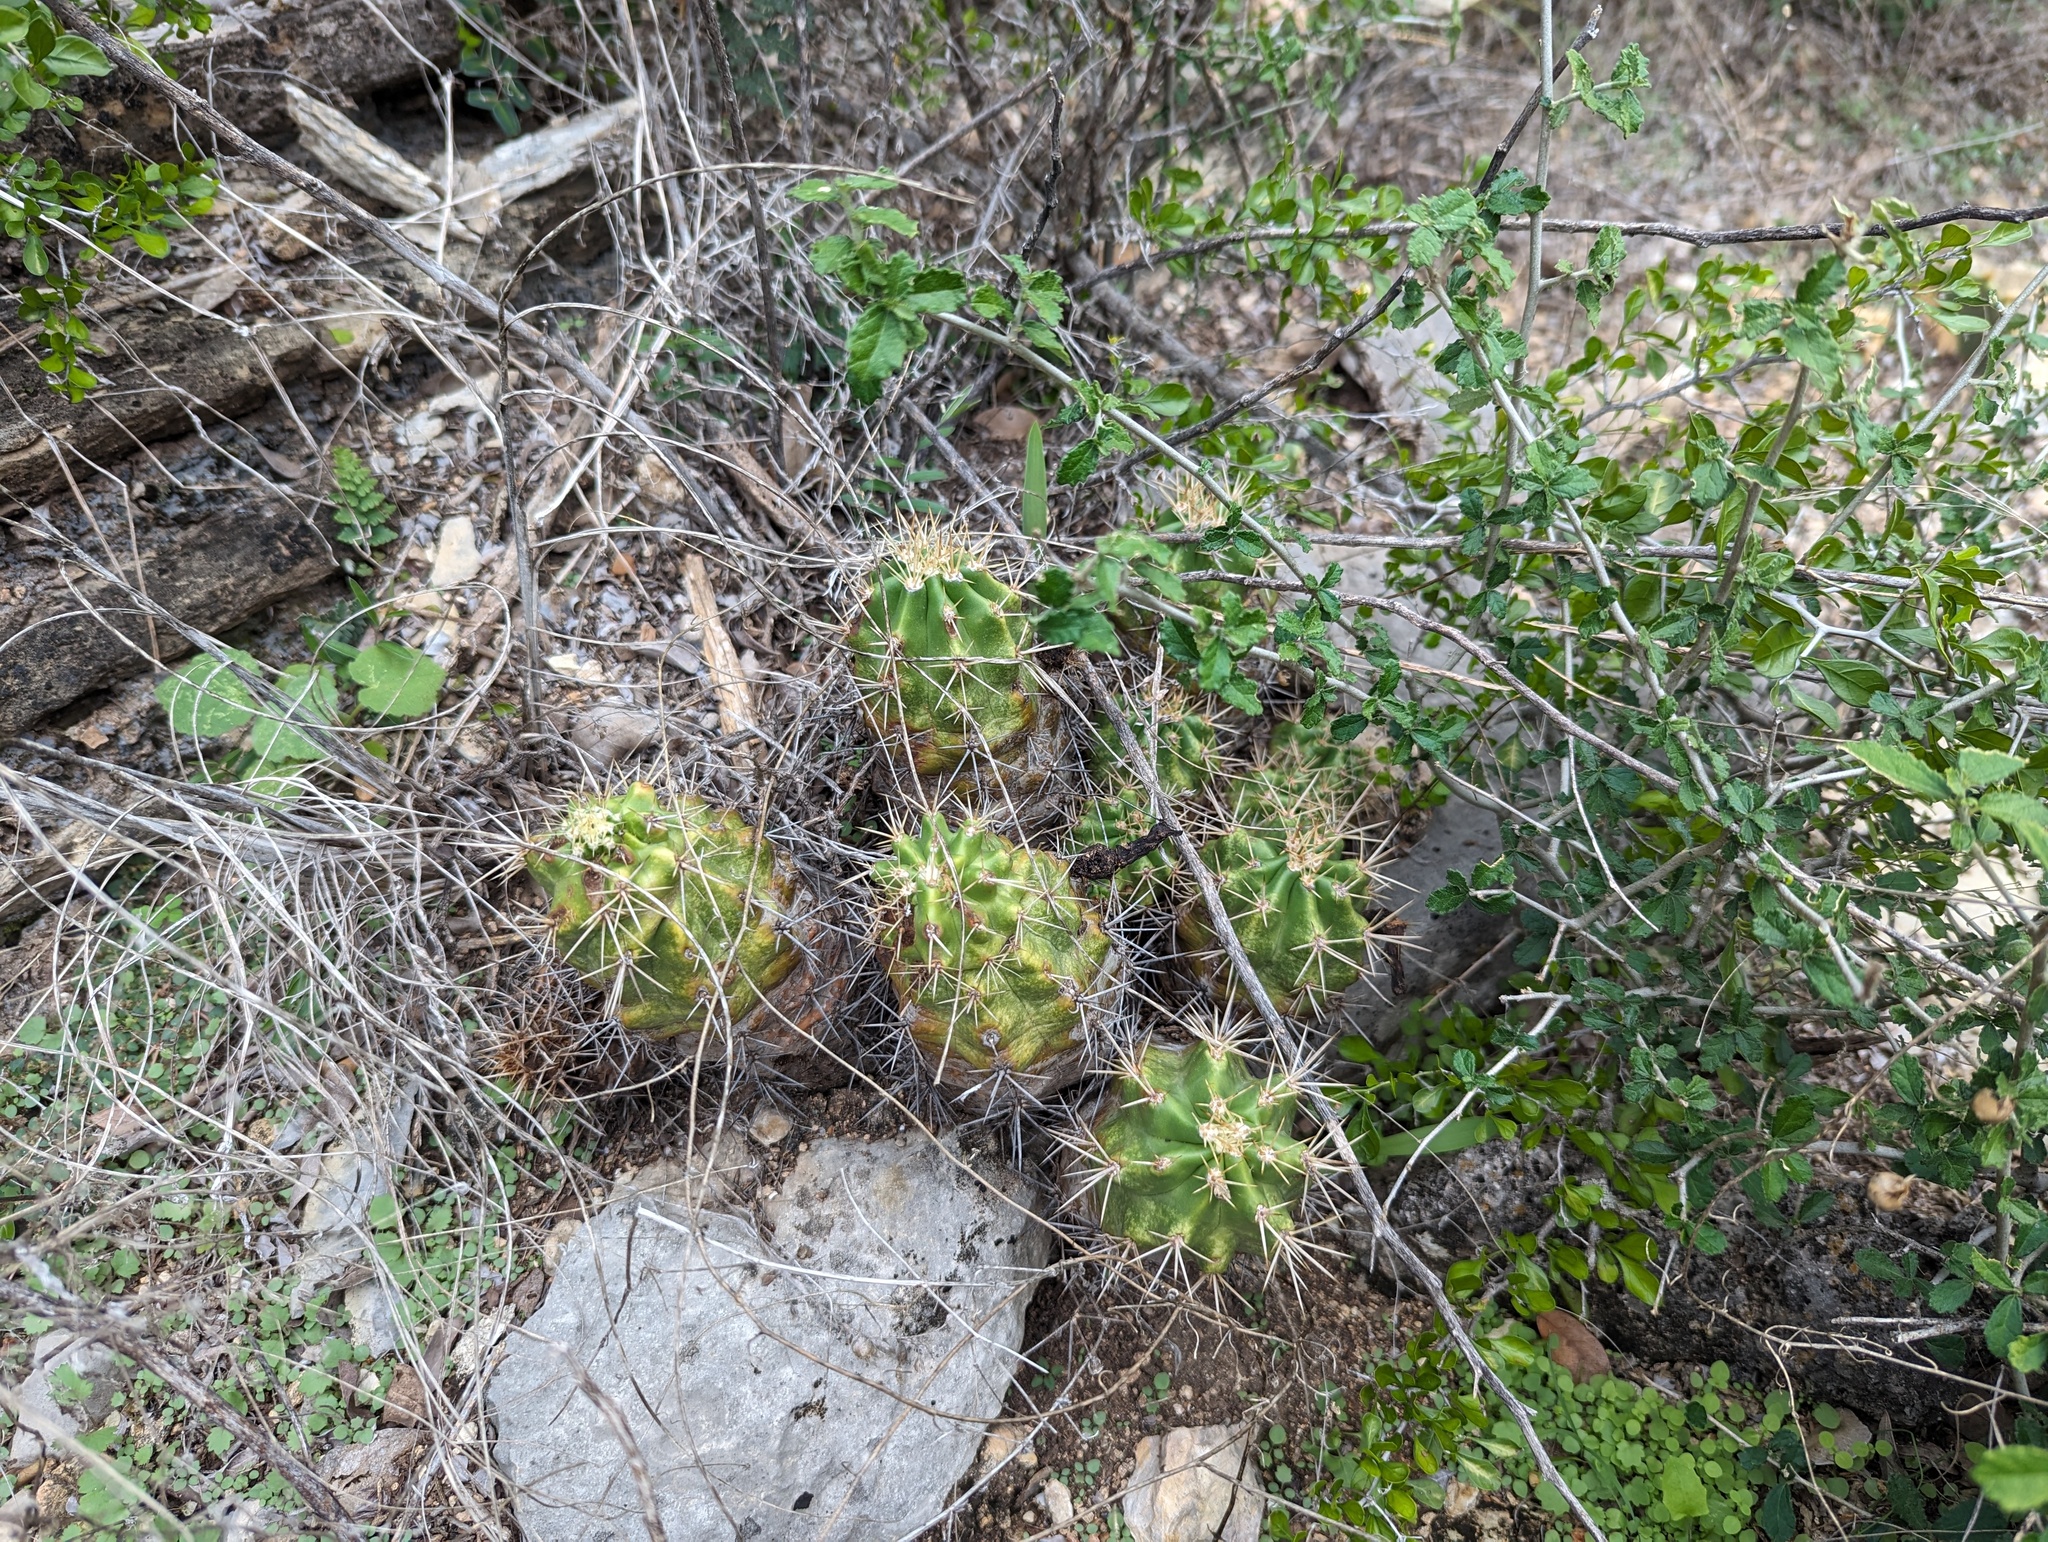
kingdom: Plantae
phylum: Tracheophyta
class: Magnoliopsida
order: Caryophyllales
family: Cactaceae
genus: Echinocereus
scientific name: Echinocereus coccineus
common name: Scarlet hedgehog cactus
